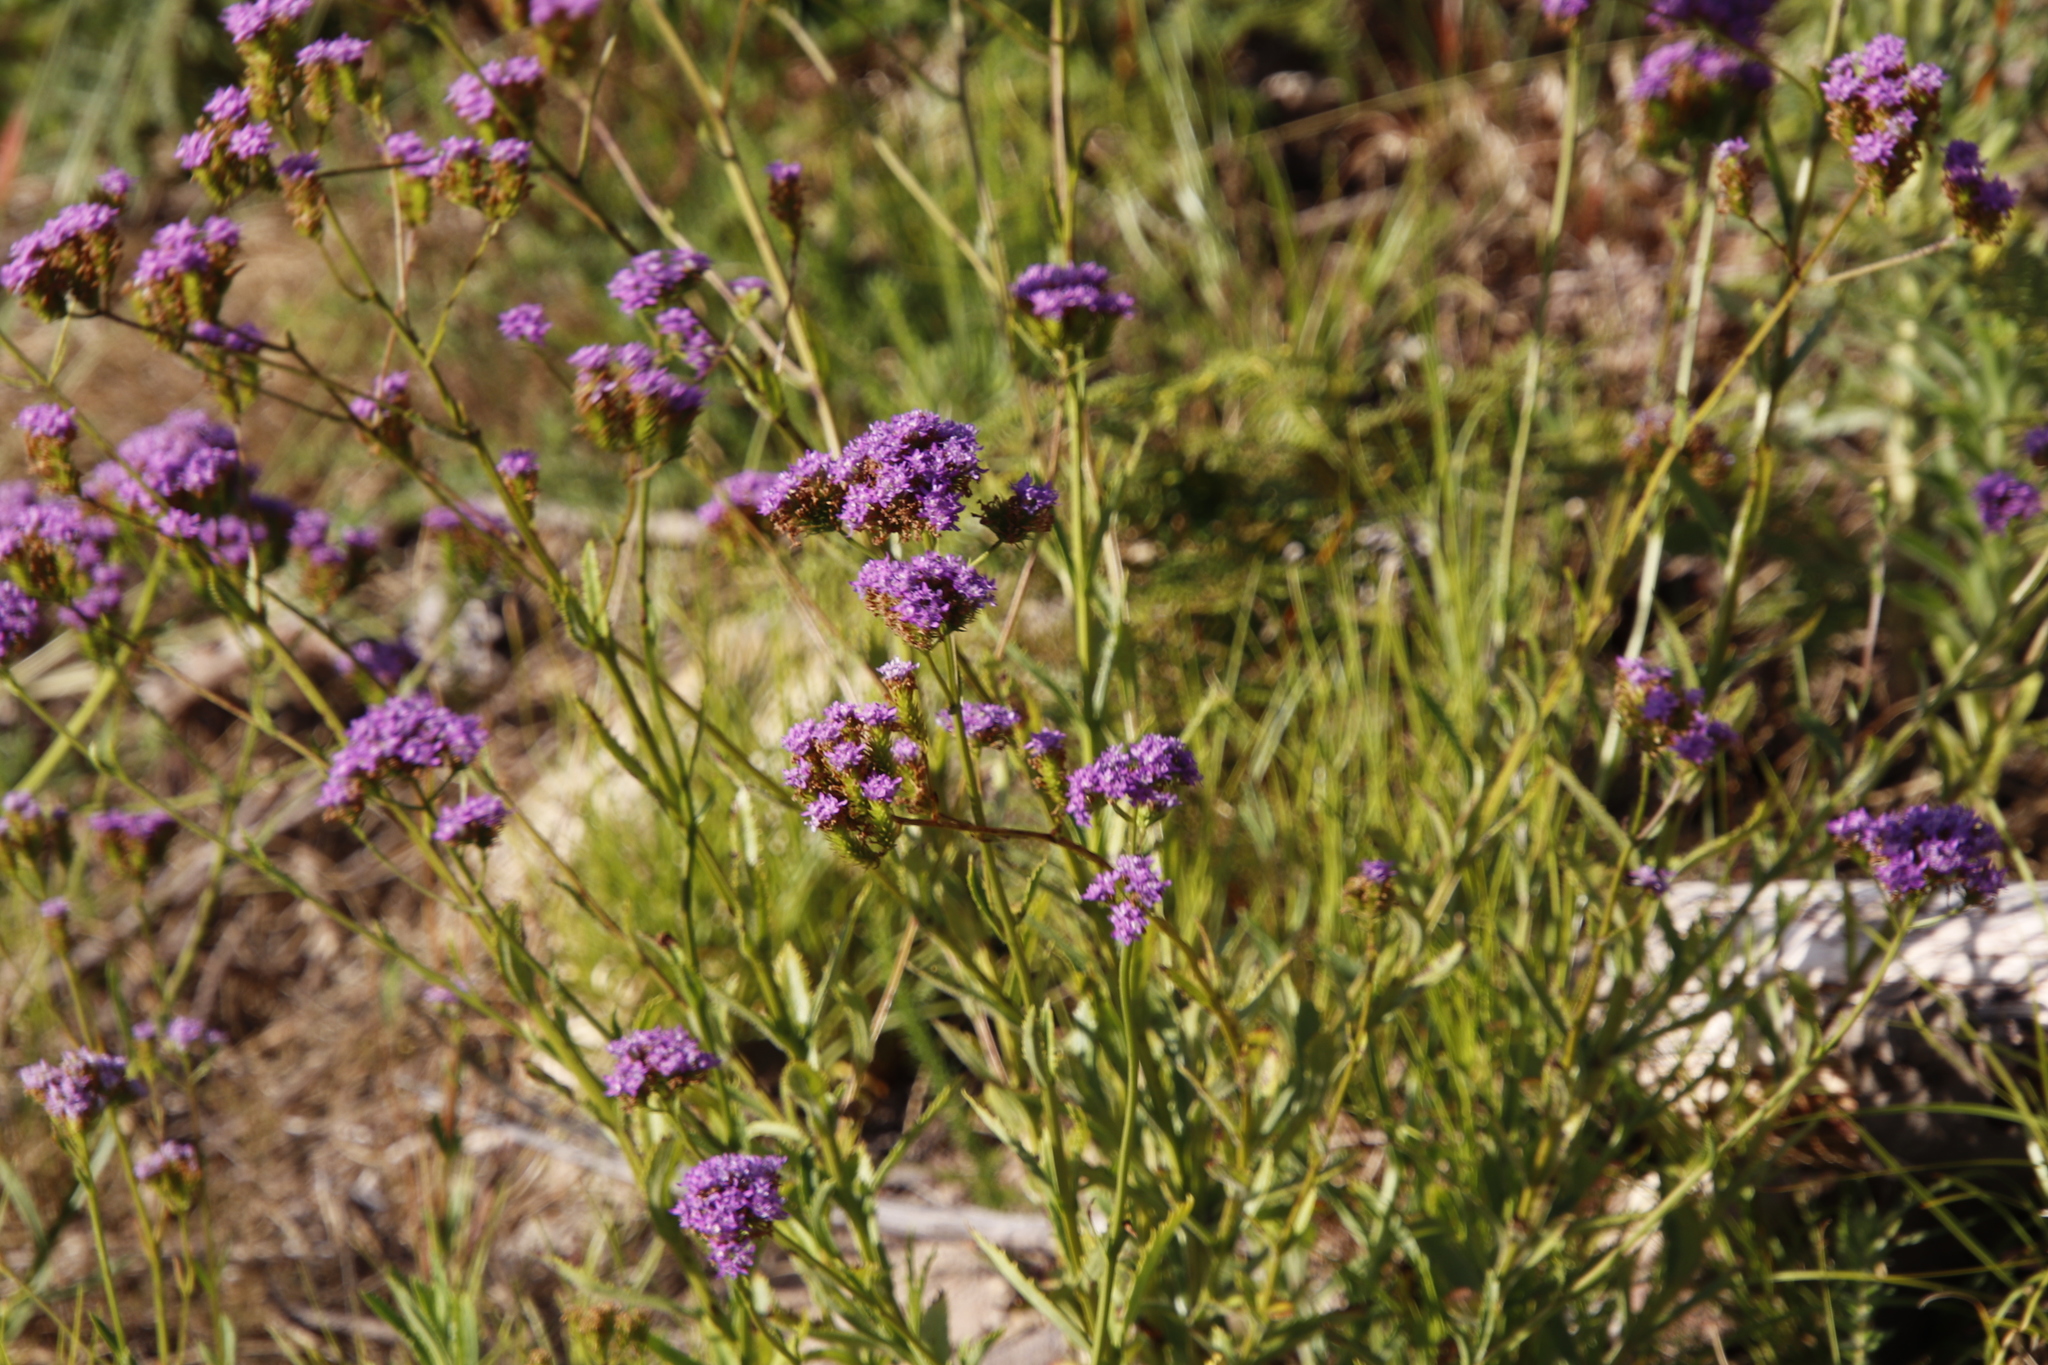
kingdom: Plantae
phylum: Tracheophyta
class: Magnoliopsida
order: Lamiales
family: Scrophulariaceae
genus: Pseudoselago
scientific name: Pseudoselago verbenacea
